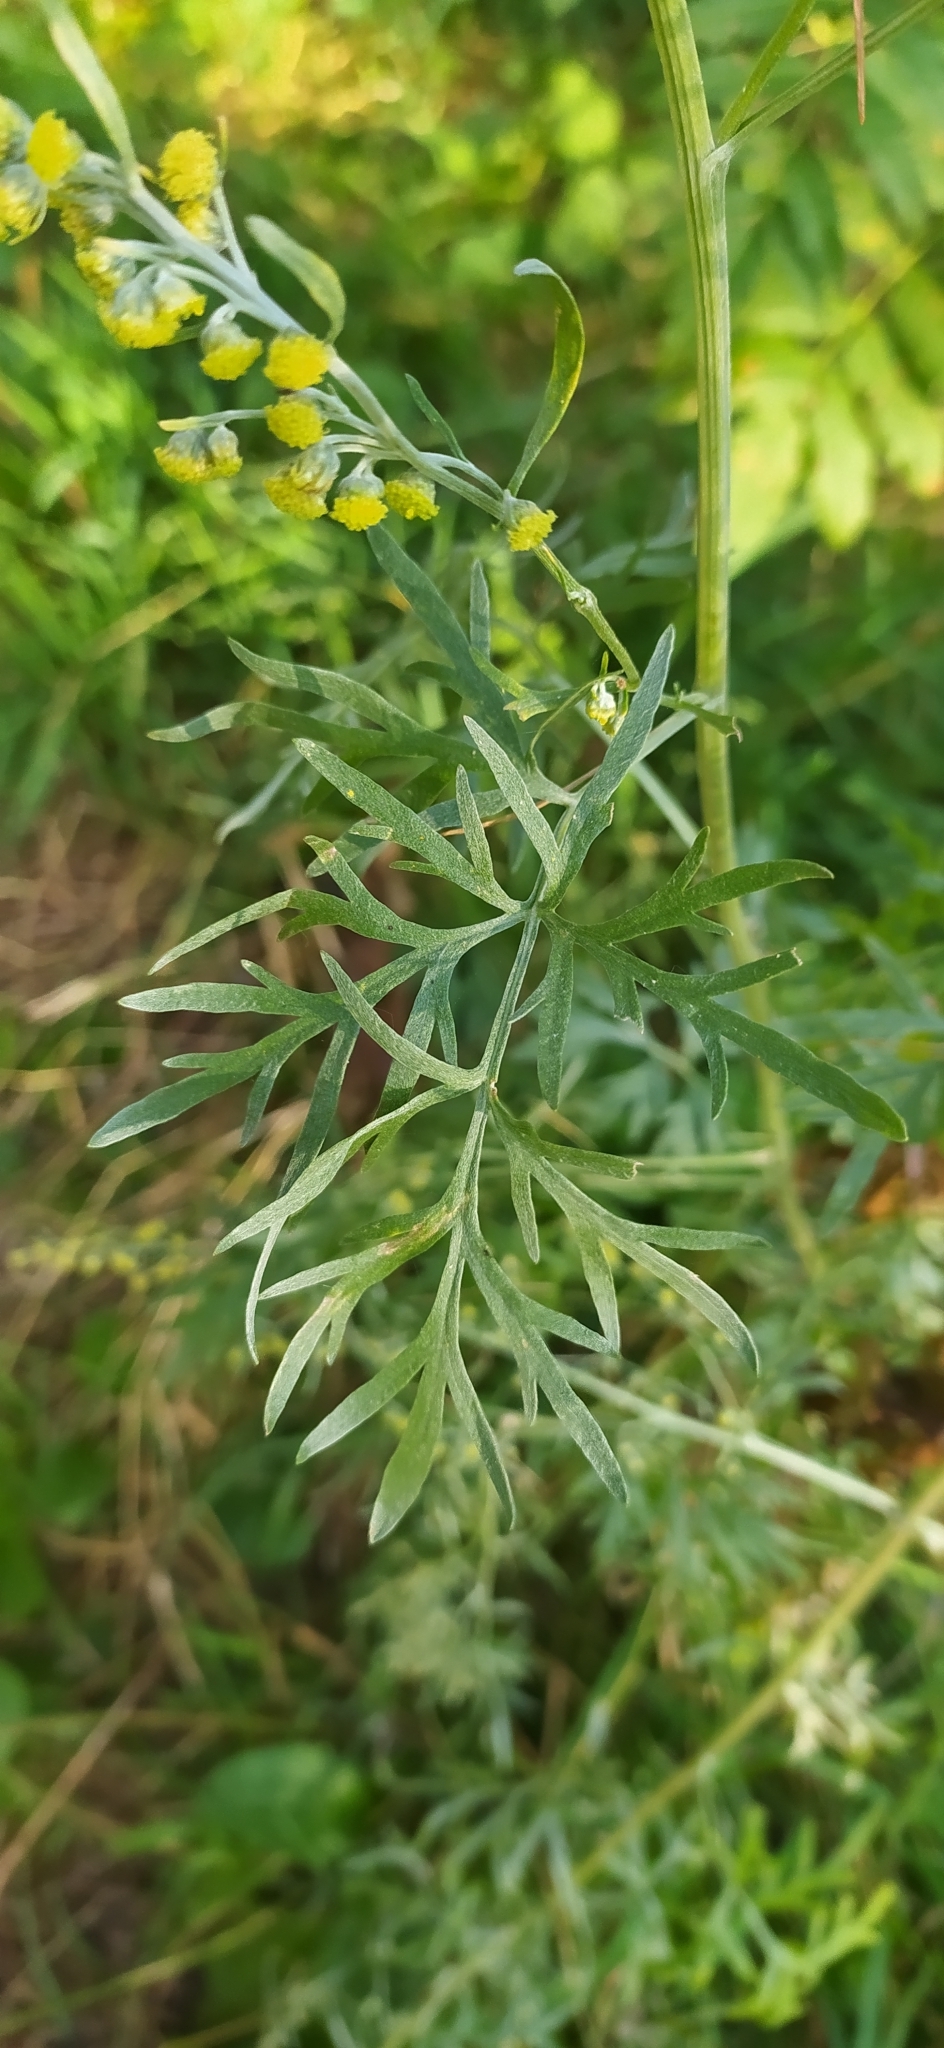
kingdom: Plantae
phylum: Tracheophyta
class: Magnoliopsida
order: Asterales
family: Asteraceae
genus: Artemisia
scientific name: Artemisia absinthium
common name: Wormwood
